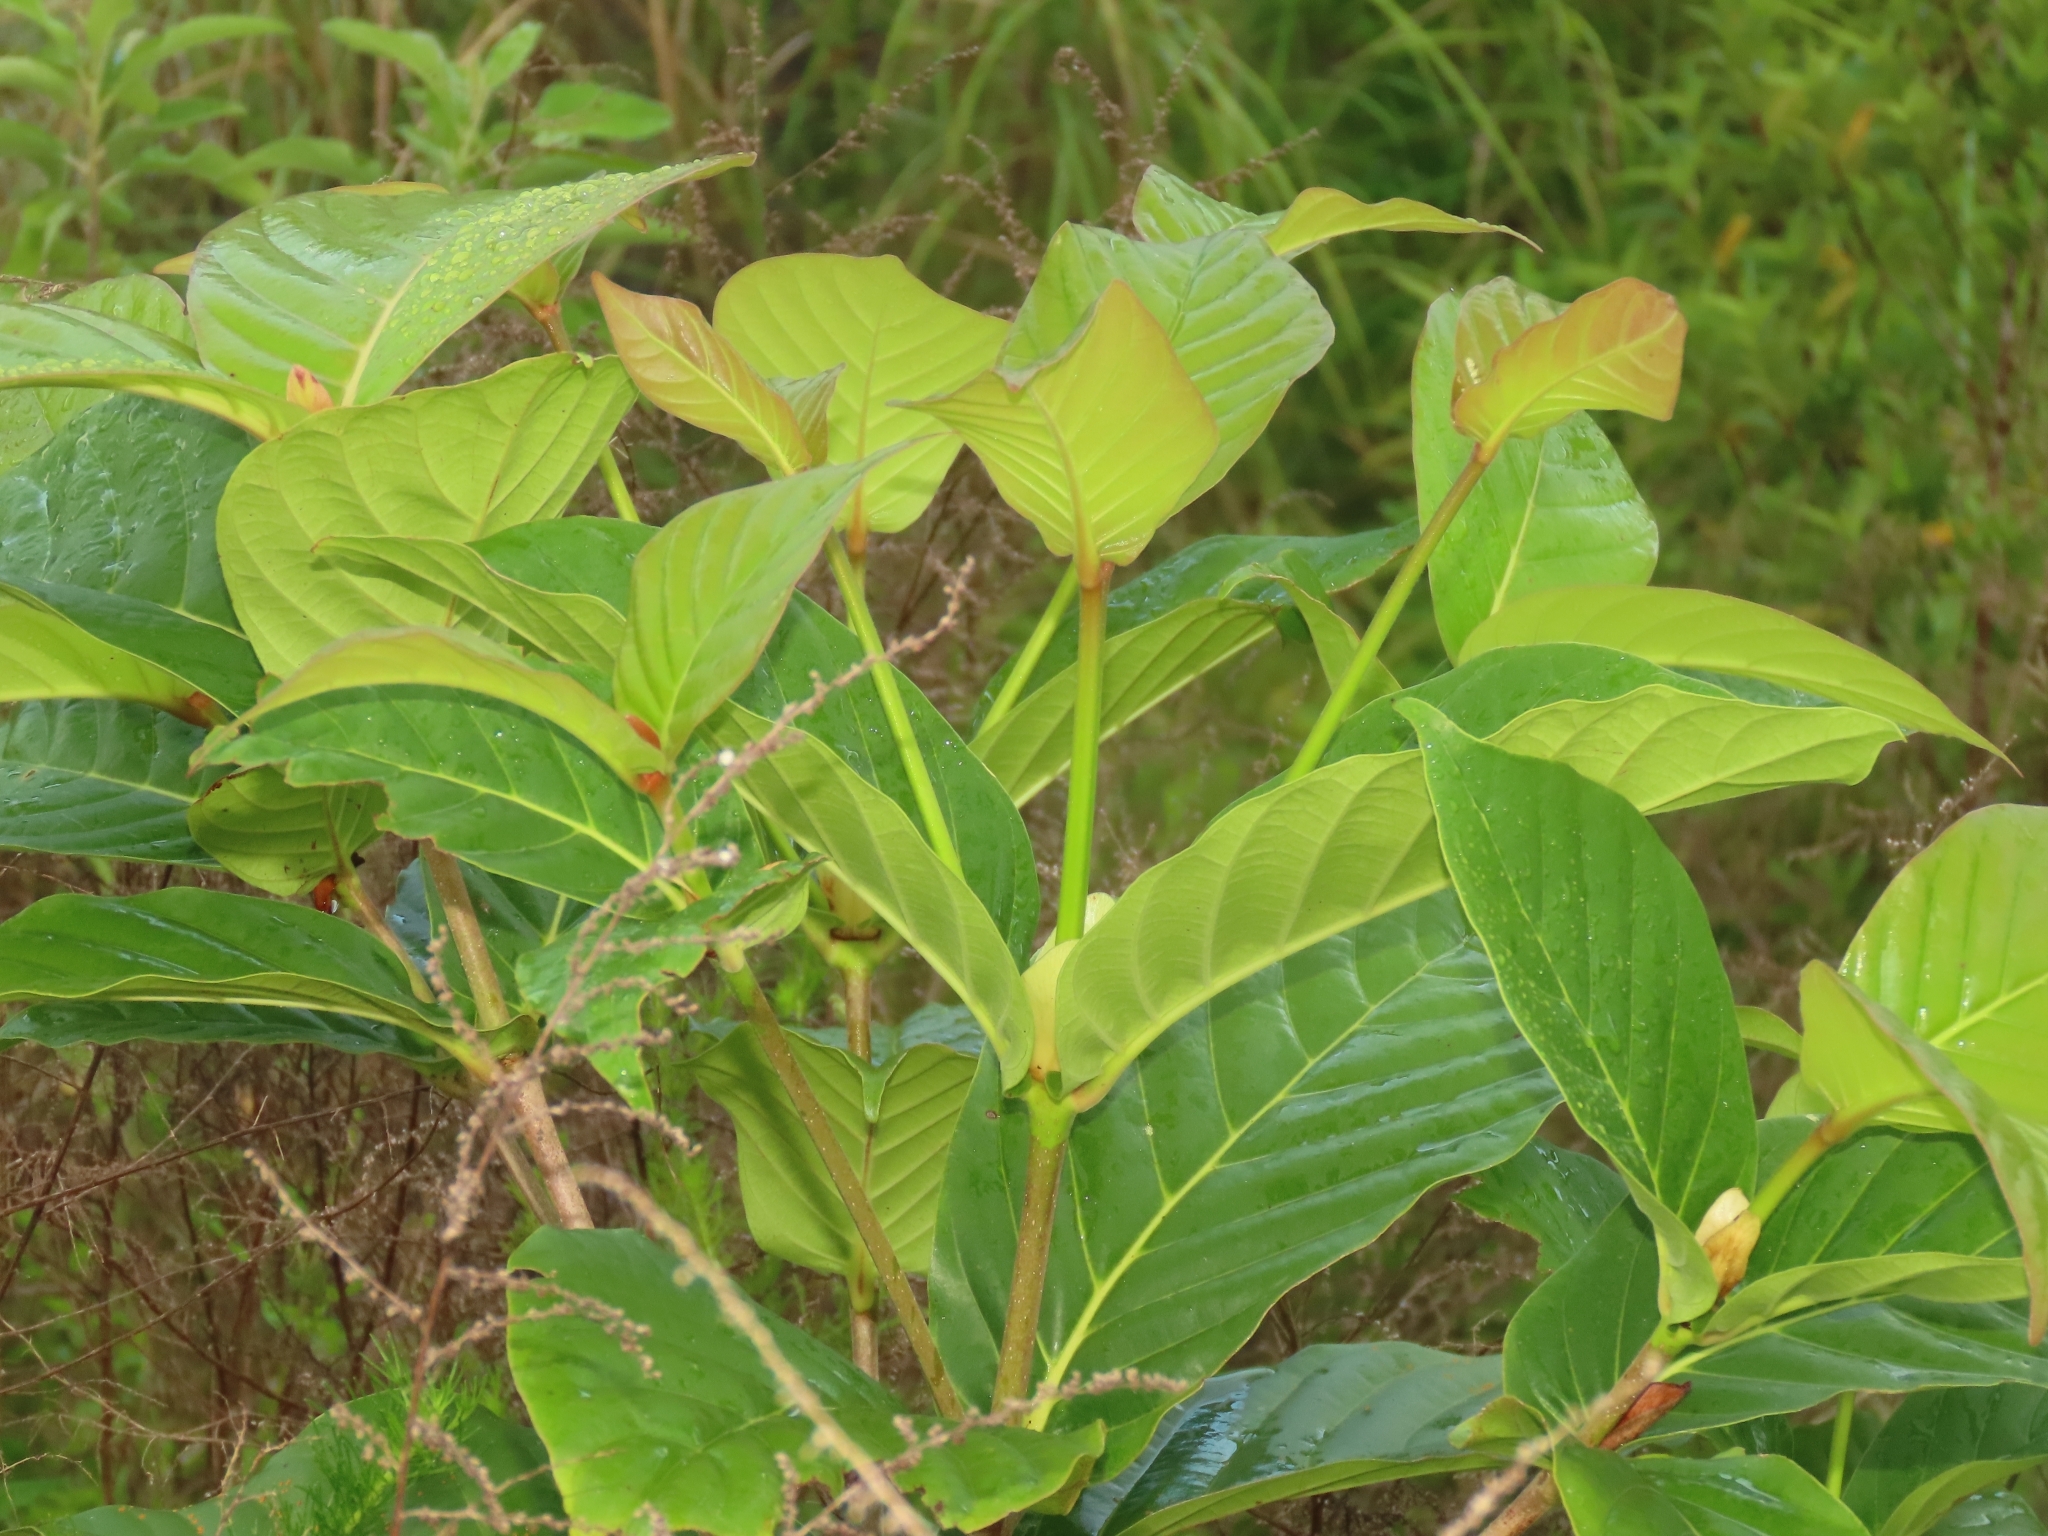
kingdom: Plantae
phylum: Tracheophyta
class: Magnoliopsida
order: Gentianales
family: Rubiaceae
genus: Neonauclea
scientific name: Neonauclea reticulata
